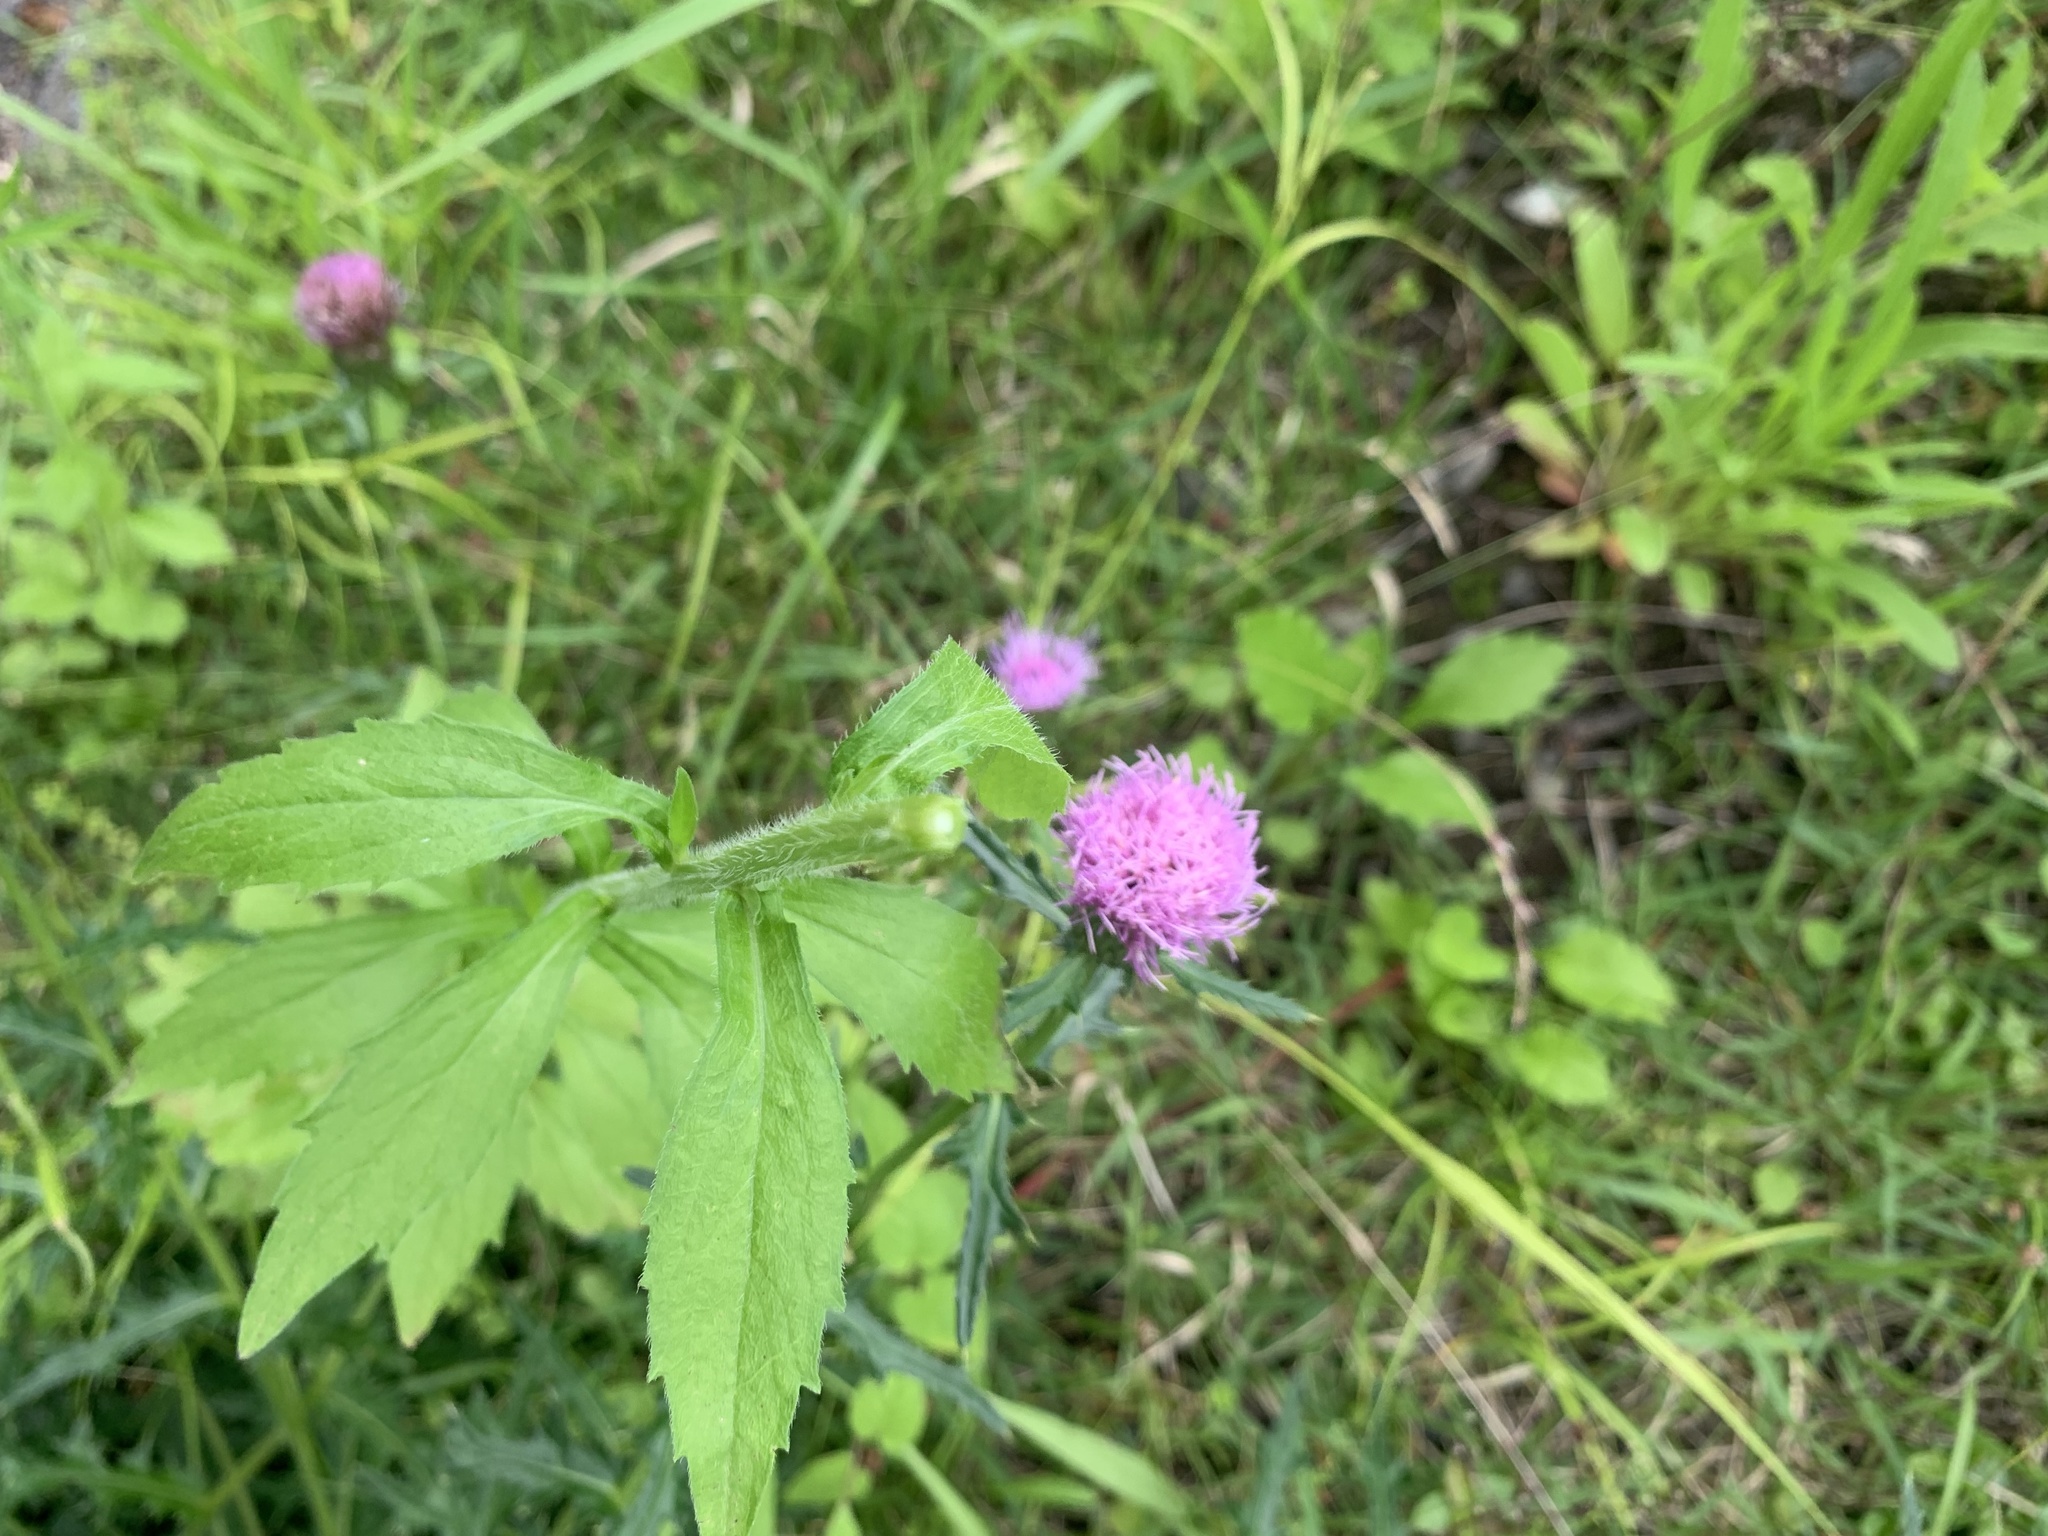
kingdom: Plantae
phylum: Tracheophyta
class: Magnoliopsida
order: Asterales
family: Asteraceae
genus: Erigeron
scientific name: Erigeron annuus
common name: Tall fleabane
